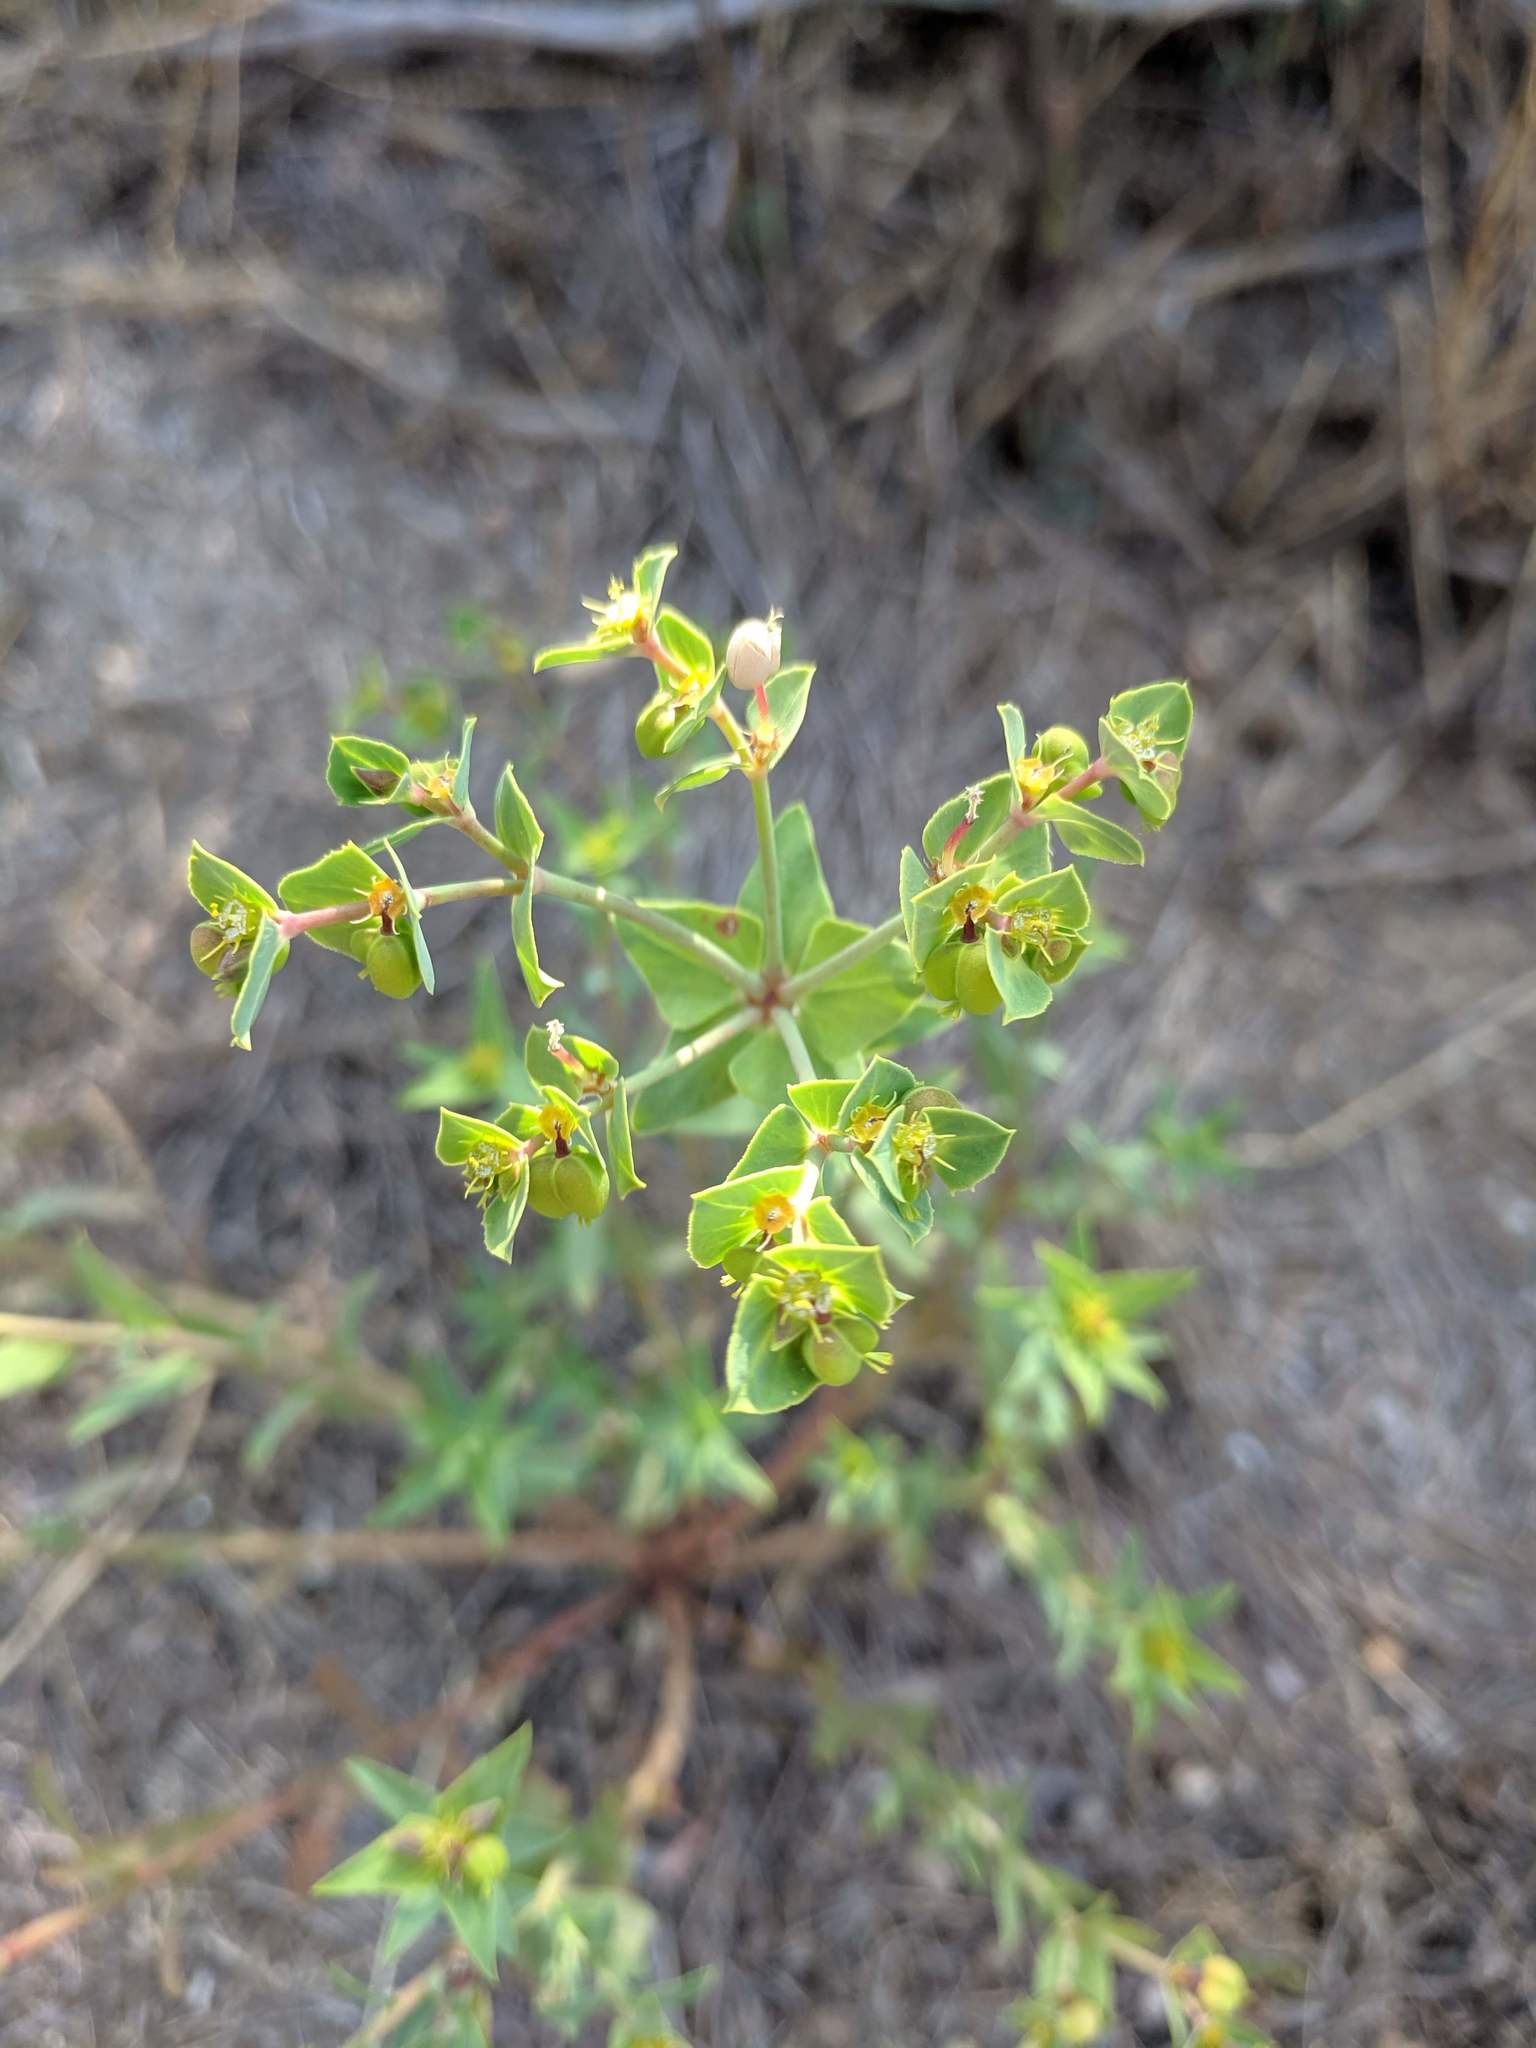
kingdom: Plantae
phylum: Tracheophyta
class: Magnoliopsida
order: Malpighiales
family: Euphorbiaceae
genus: Euphorbia
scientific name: Euphorbia terracina
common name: Geraldton carnation weed
